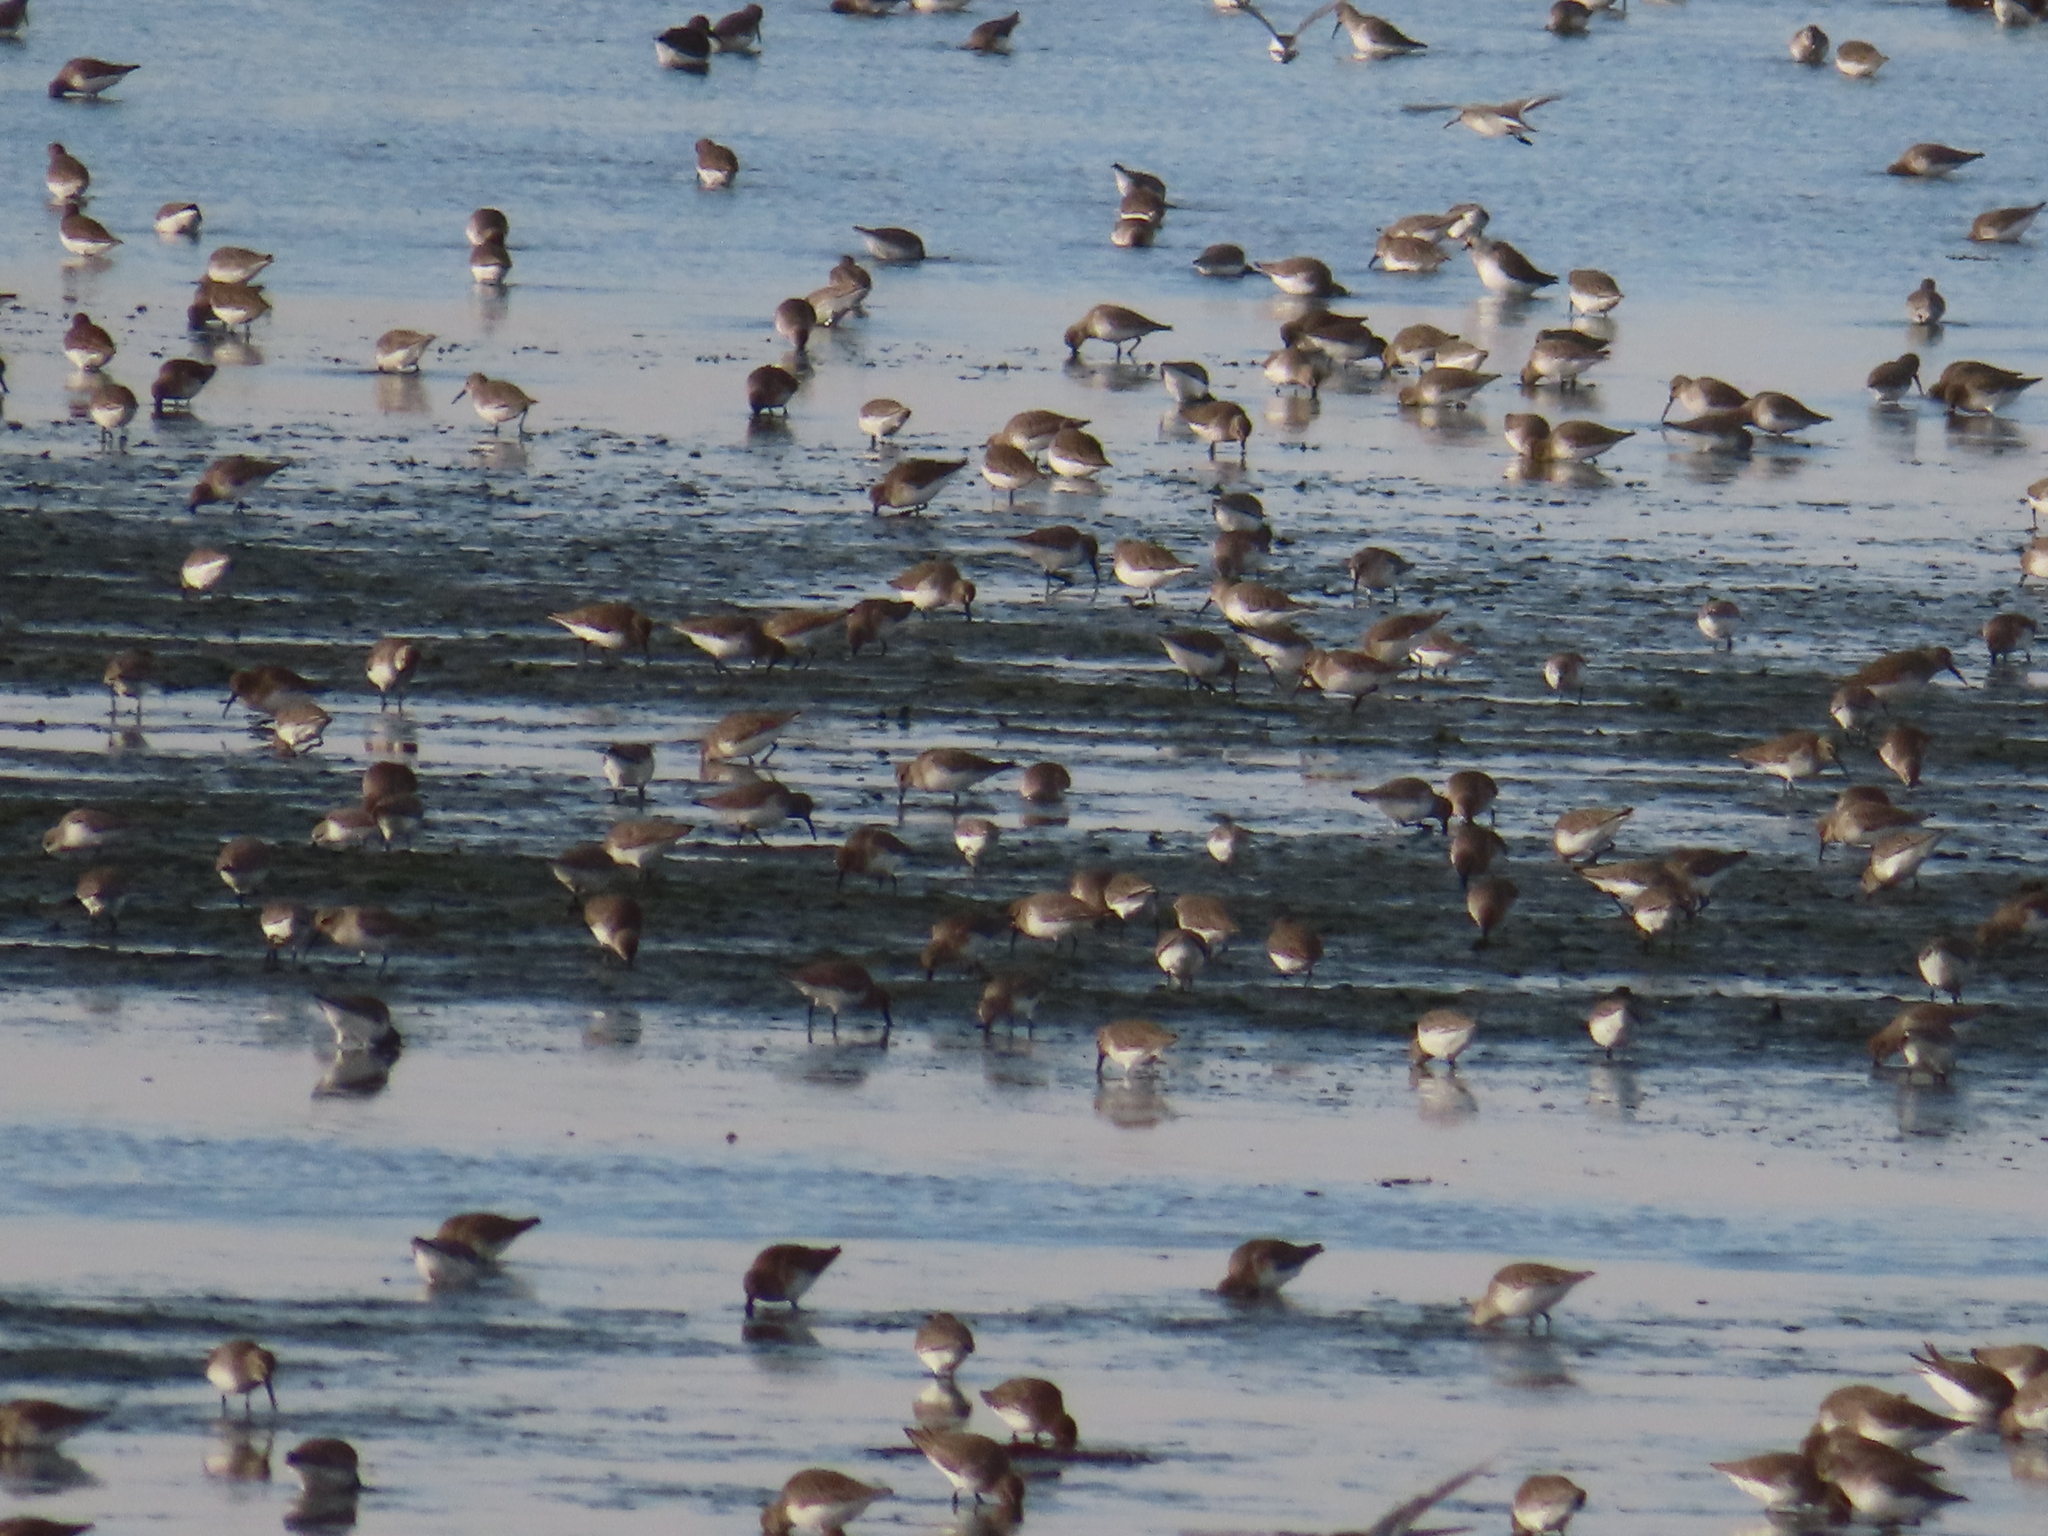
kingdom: Animalia
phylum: Chordata
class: Aves
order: Charadriiformes
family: Scolopacidae
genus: Calidris
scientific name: Calidris alpina
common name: Dunlin
